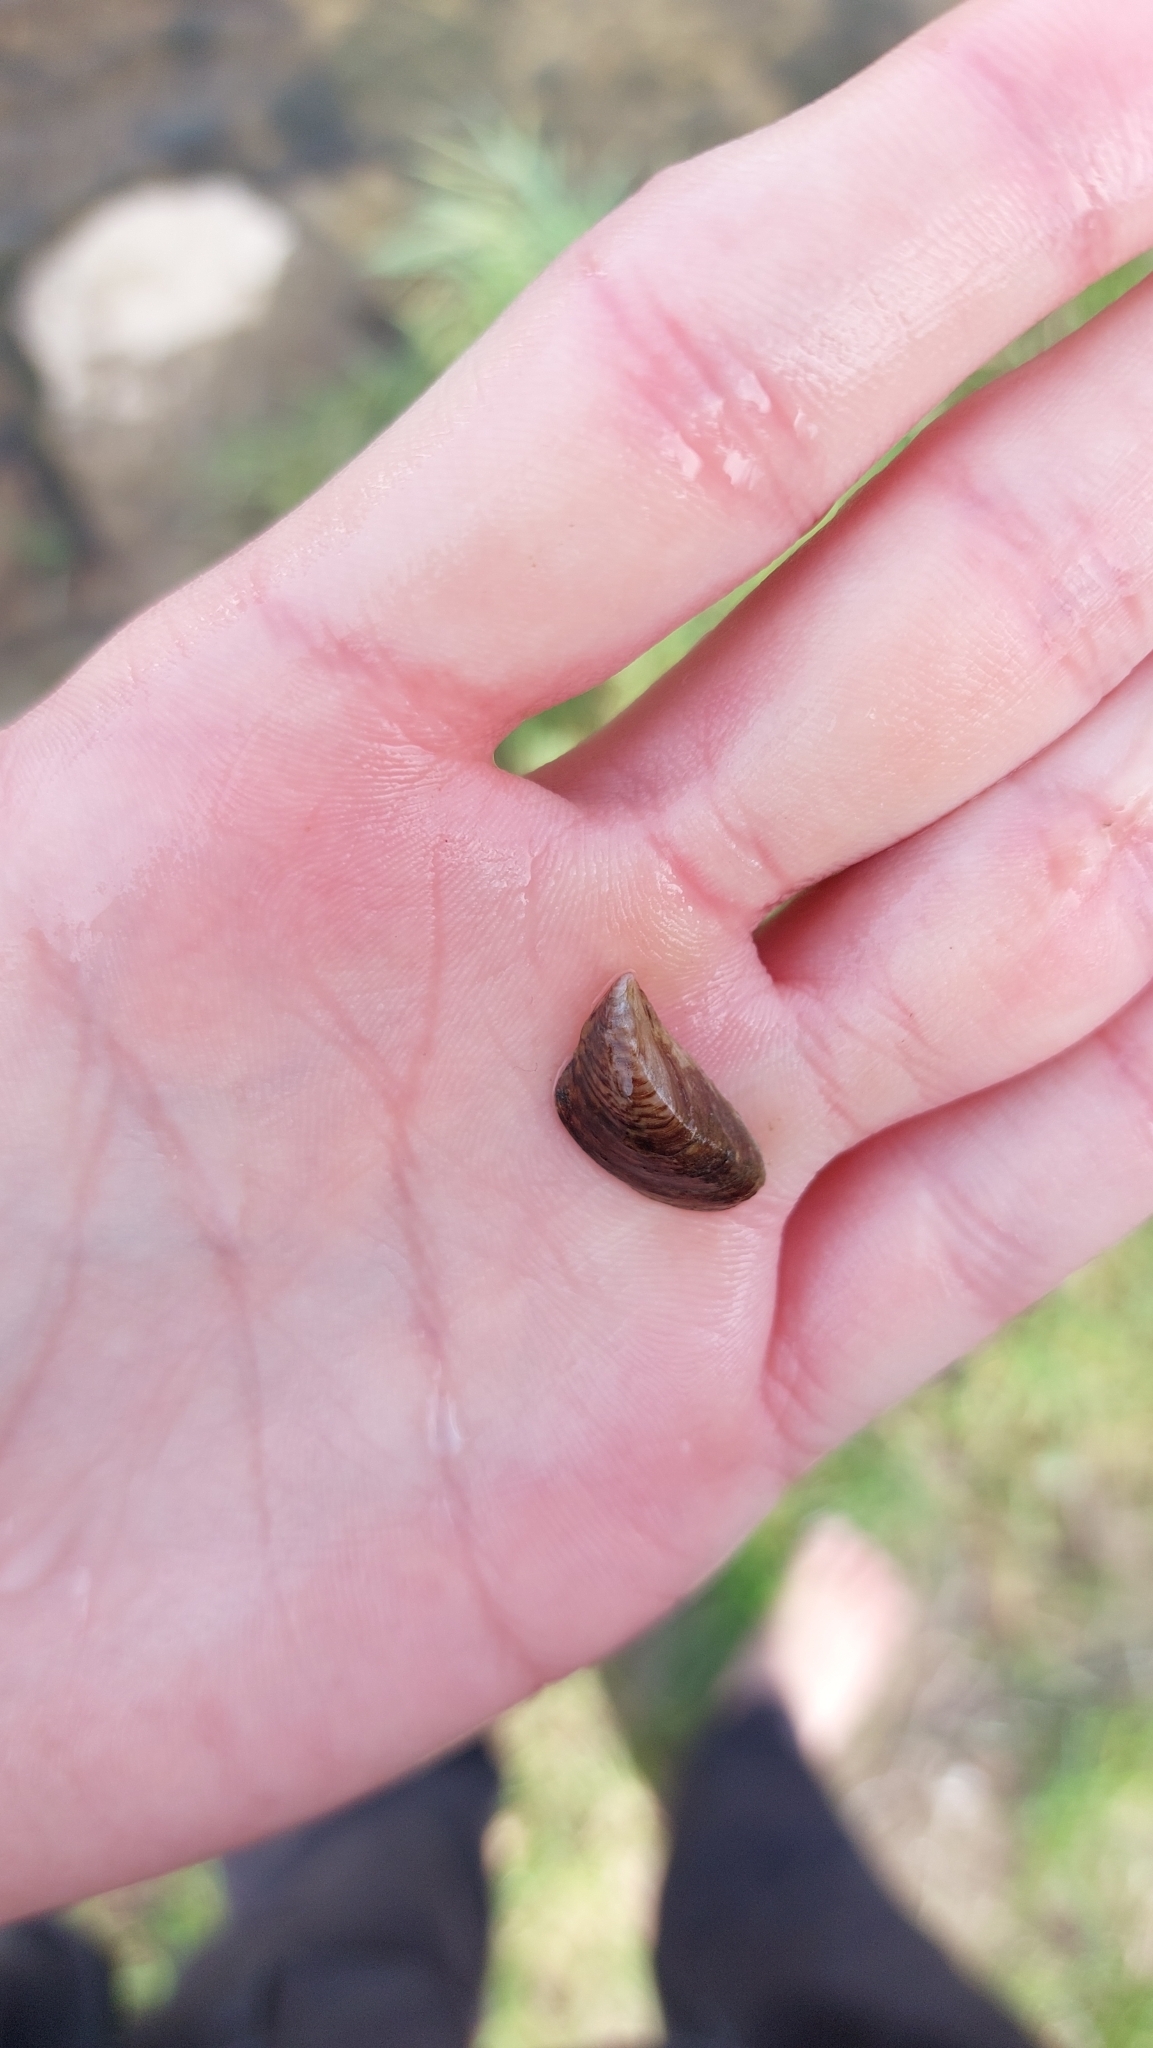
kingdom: Animalia
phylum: Mollusca
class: Bivalvia
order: Myida
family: Dreissenidae
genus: Dreissena
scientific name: Dreissena polymorpha
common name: Zebra mussel
